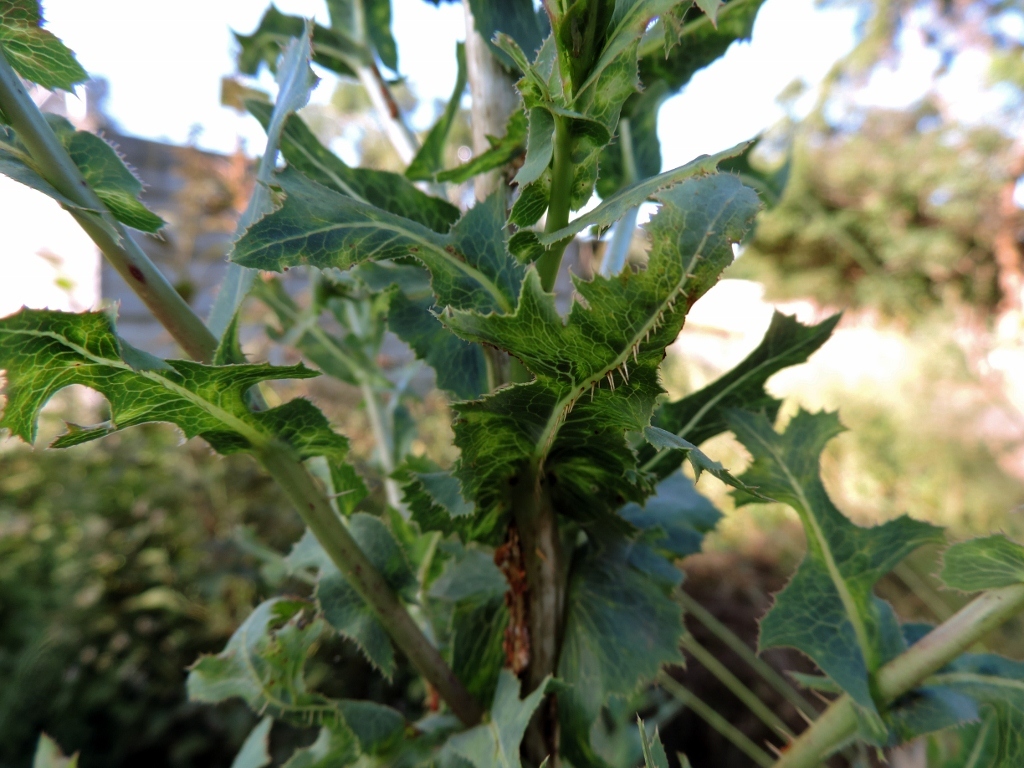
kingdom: Plantae
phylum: Tracheophyta
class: Magnoliopsida
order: Asterales
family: Asteraceae
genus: Lactuca
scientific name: Lactuca serriola
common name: Prickly lettuce
